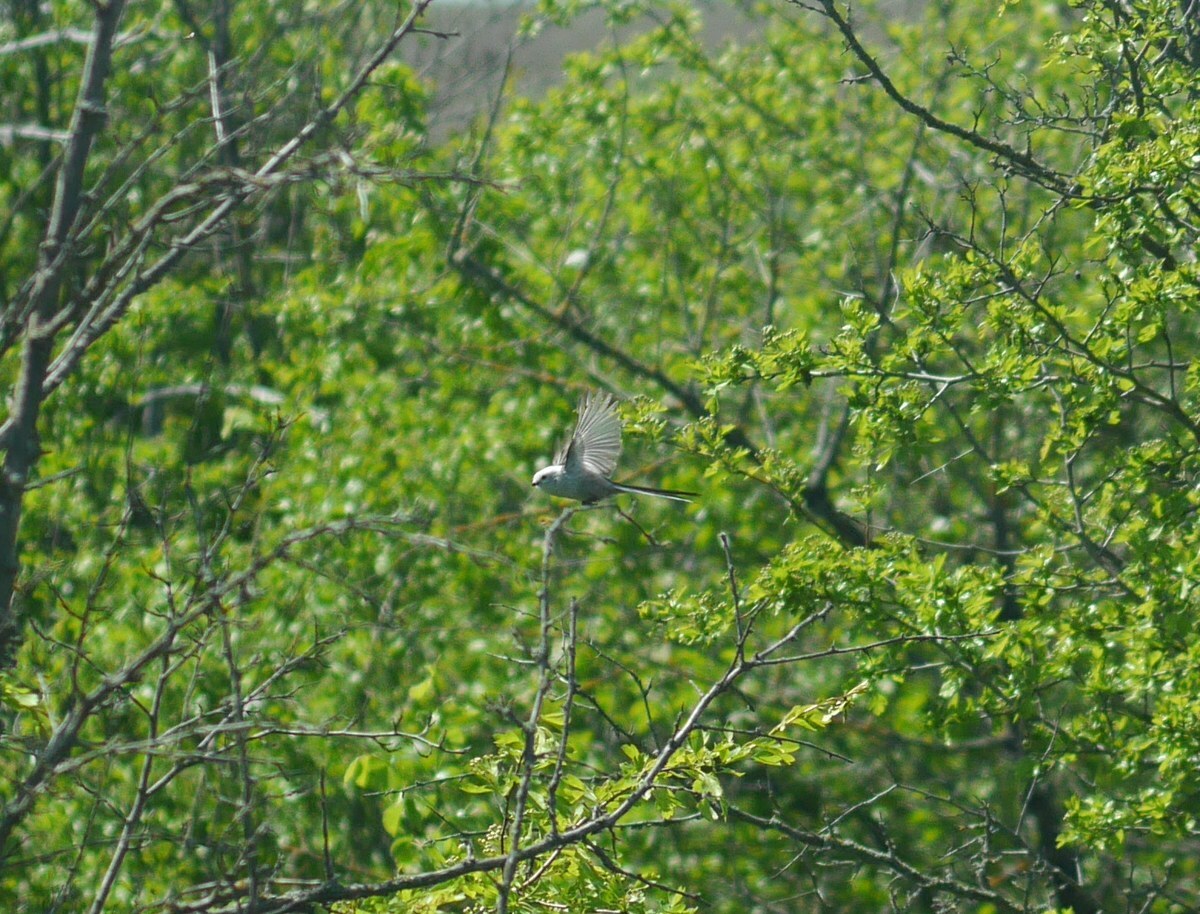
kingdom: Animalia
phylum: Chordata
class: Aves
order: Passeriformes
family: Aegithalidae
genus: Aegithalos
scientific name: Aegithalos caudatus
